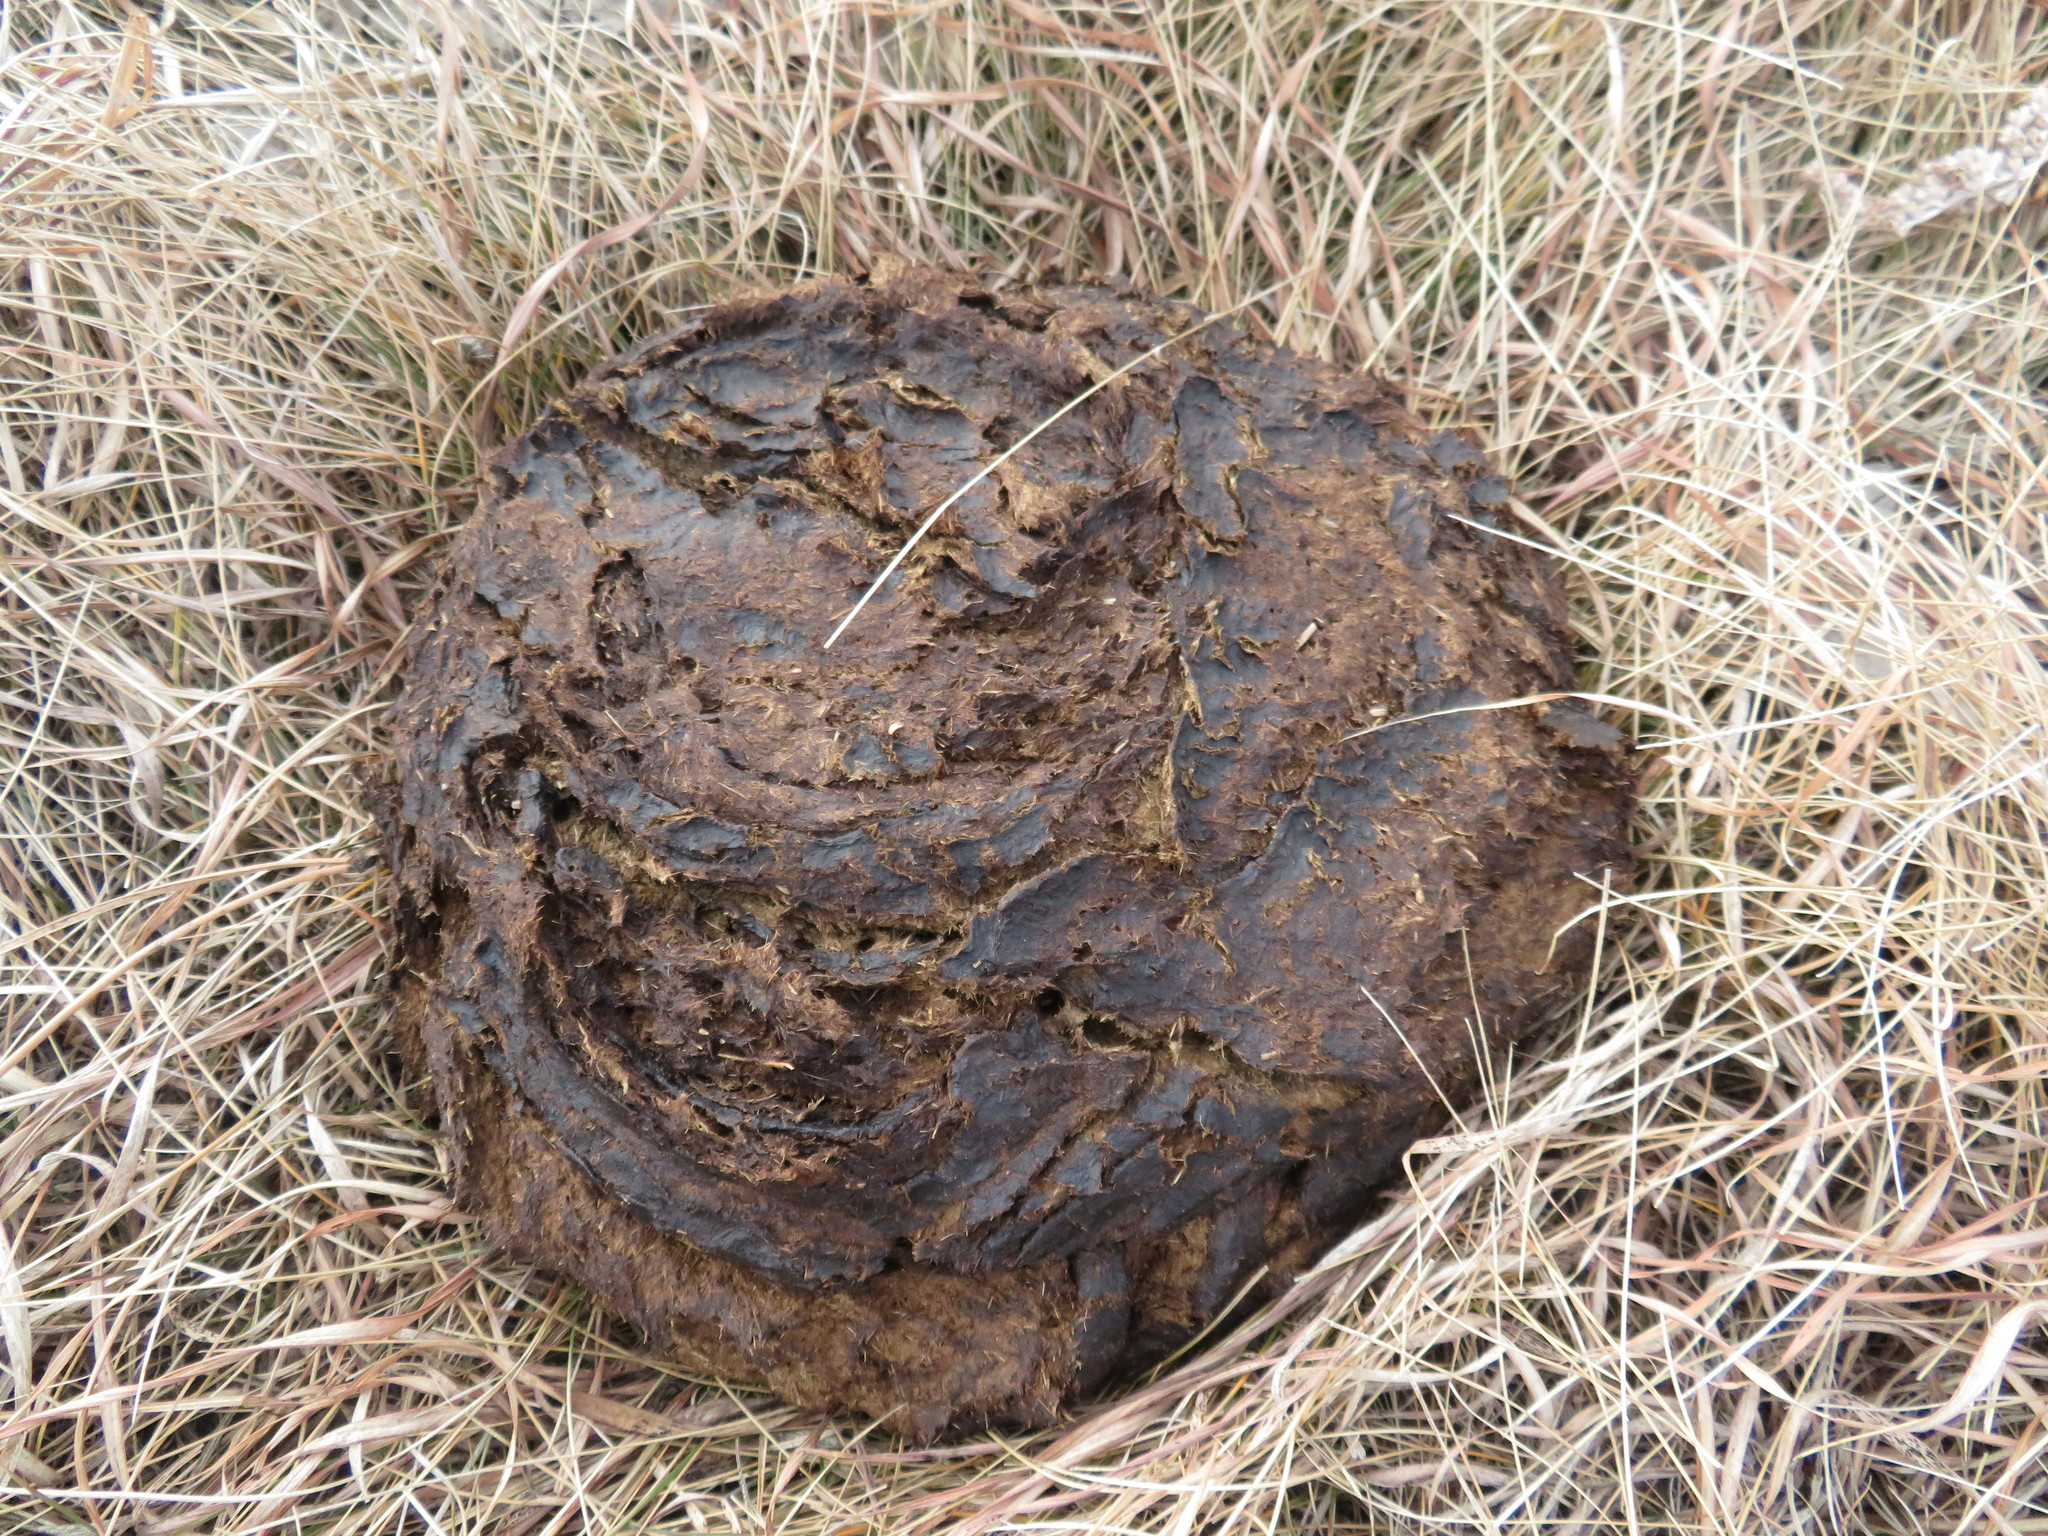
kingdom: Animalia
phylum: Chordata
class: Mammalia
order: Artiodactyla
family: Bovidae
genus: Bison
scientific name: Bison bison
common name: American bison
